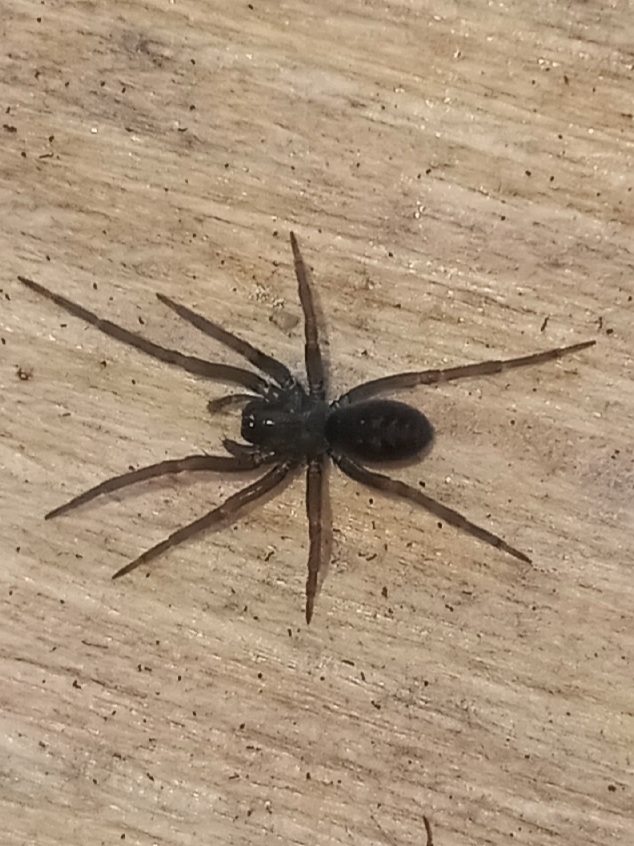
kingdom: Animalia
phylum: Arthropoda
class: Arachnida
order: Araneae
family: Desidae
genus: Metaltella
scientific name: Metaltella simoni
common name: Cribellate spider
